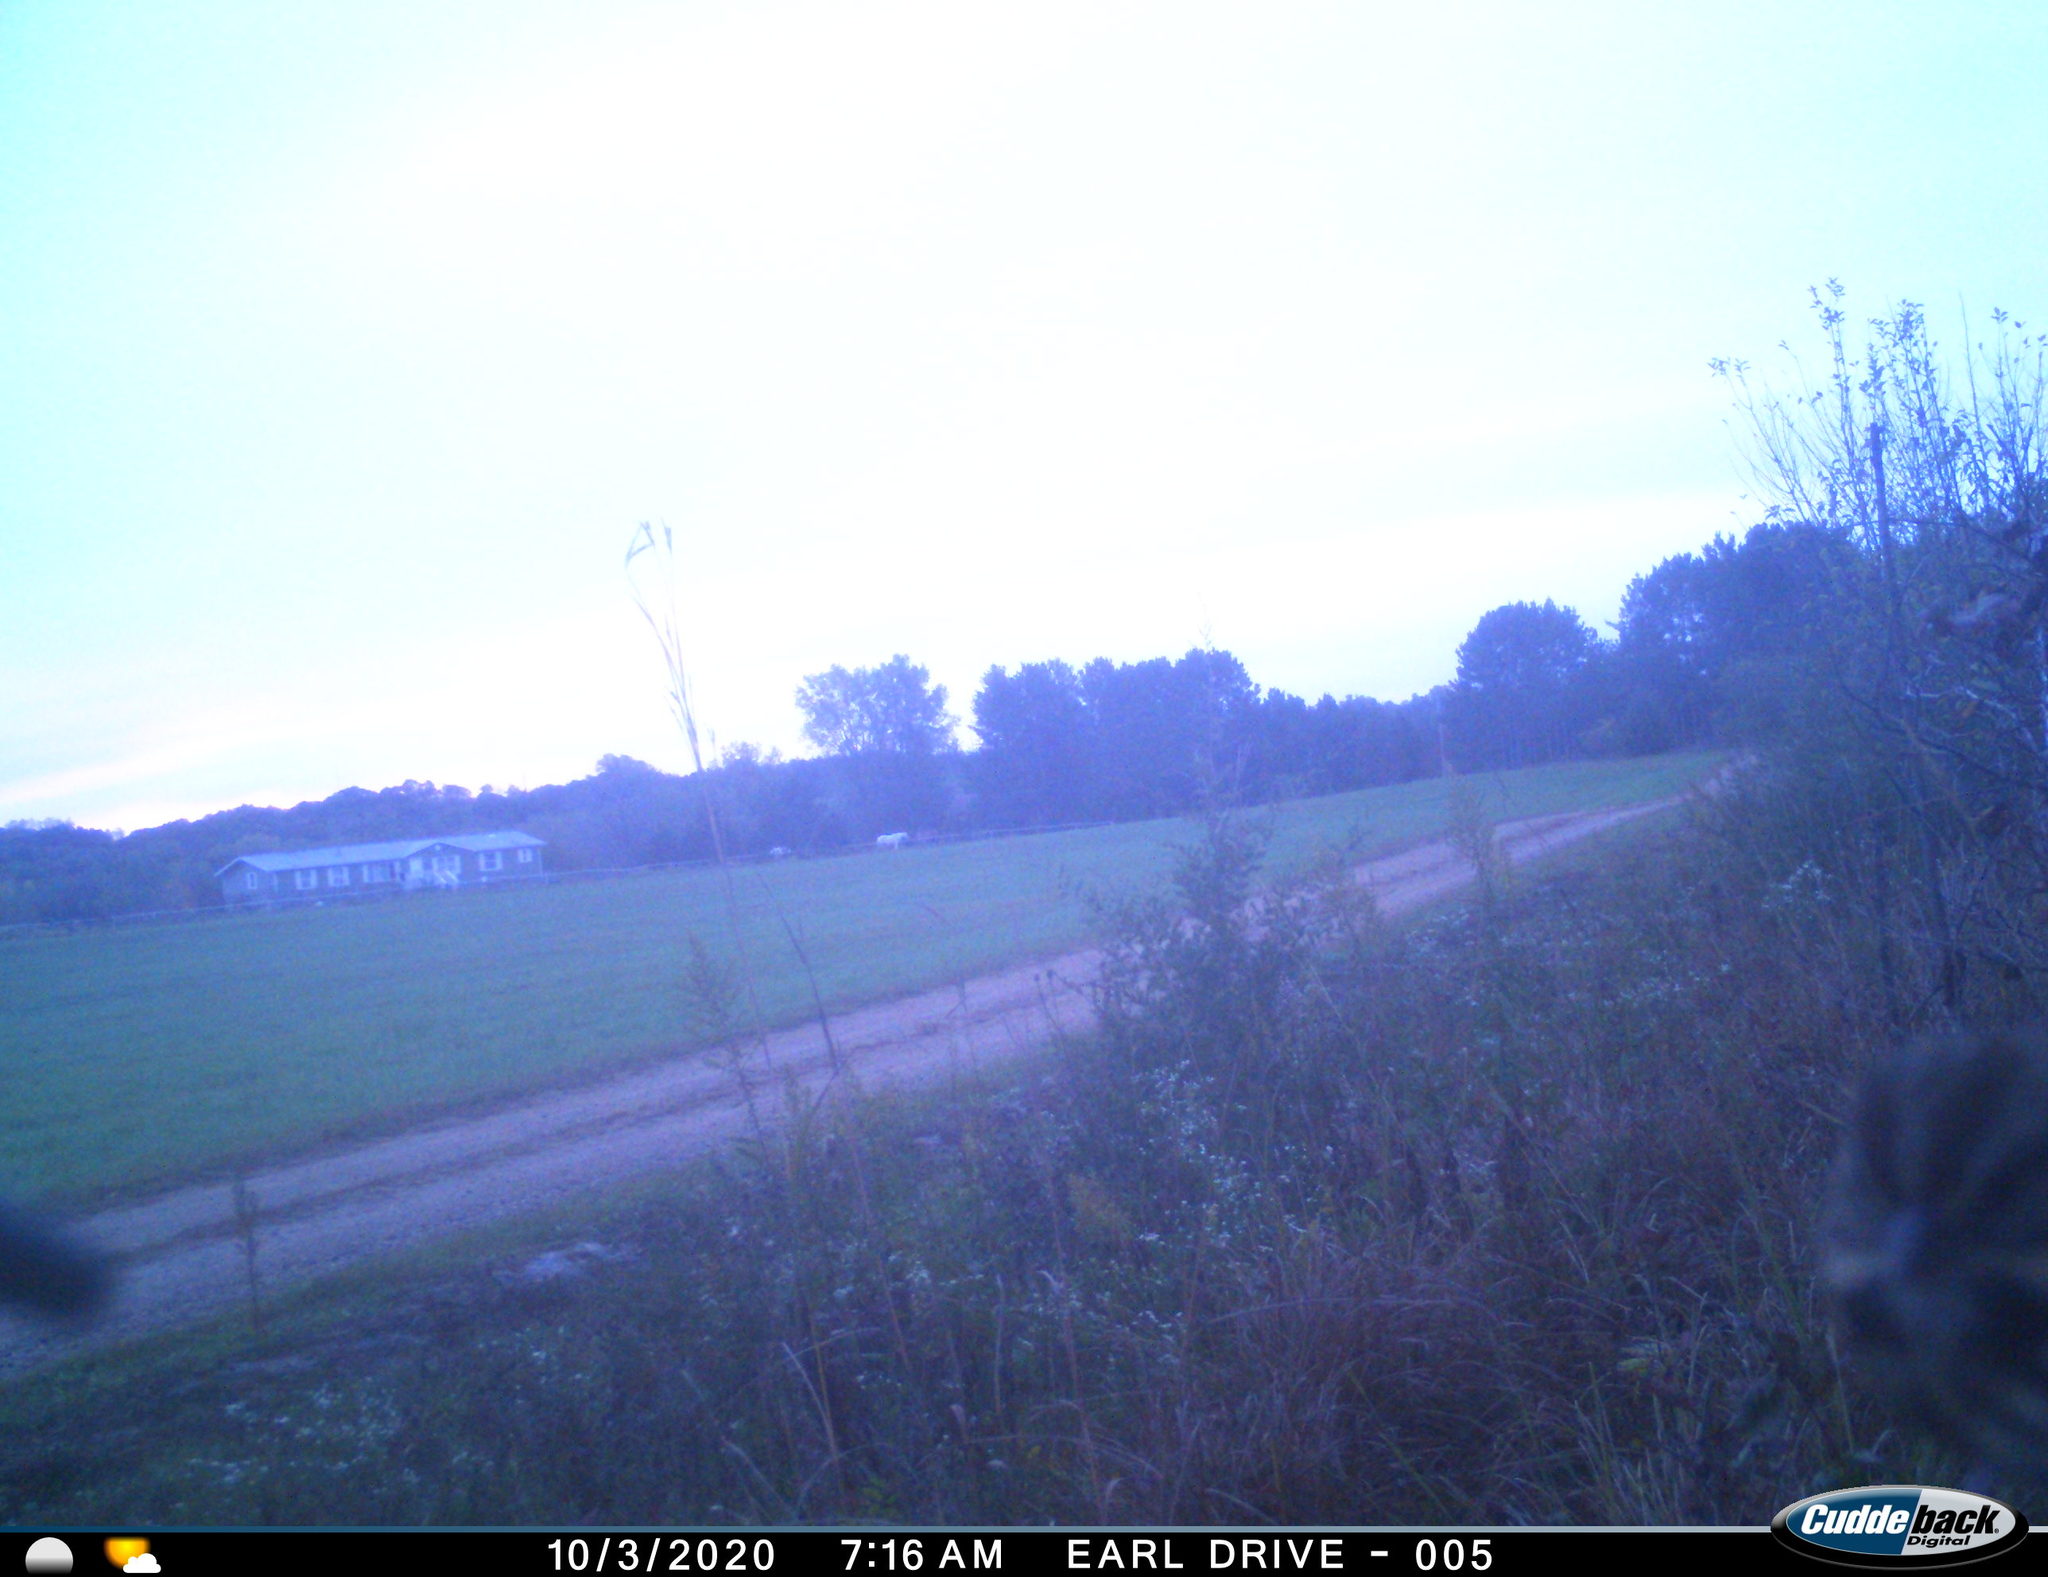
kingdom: Animalia
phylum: Chordata
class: Aves
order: Passeriformes
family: Passerellidae
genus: Melospiza
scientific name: Melospiza melodia
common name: Song sparrow
